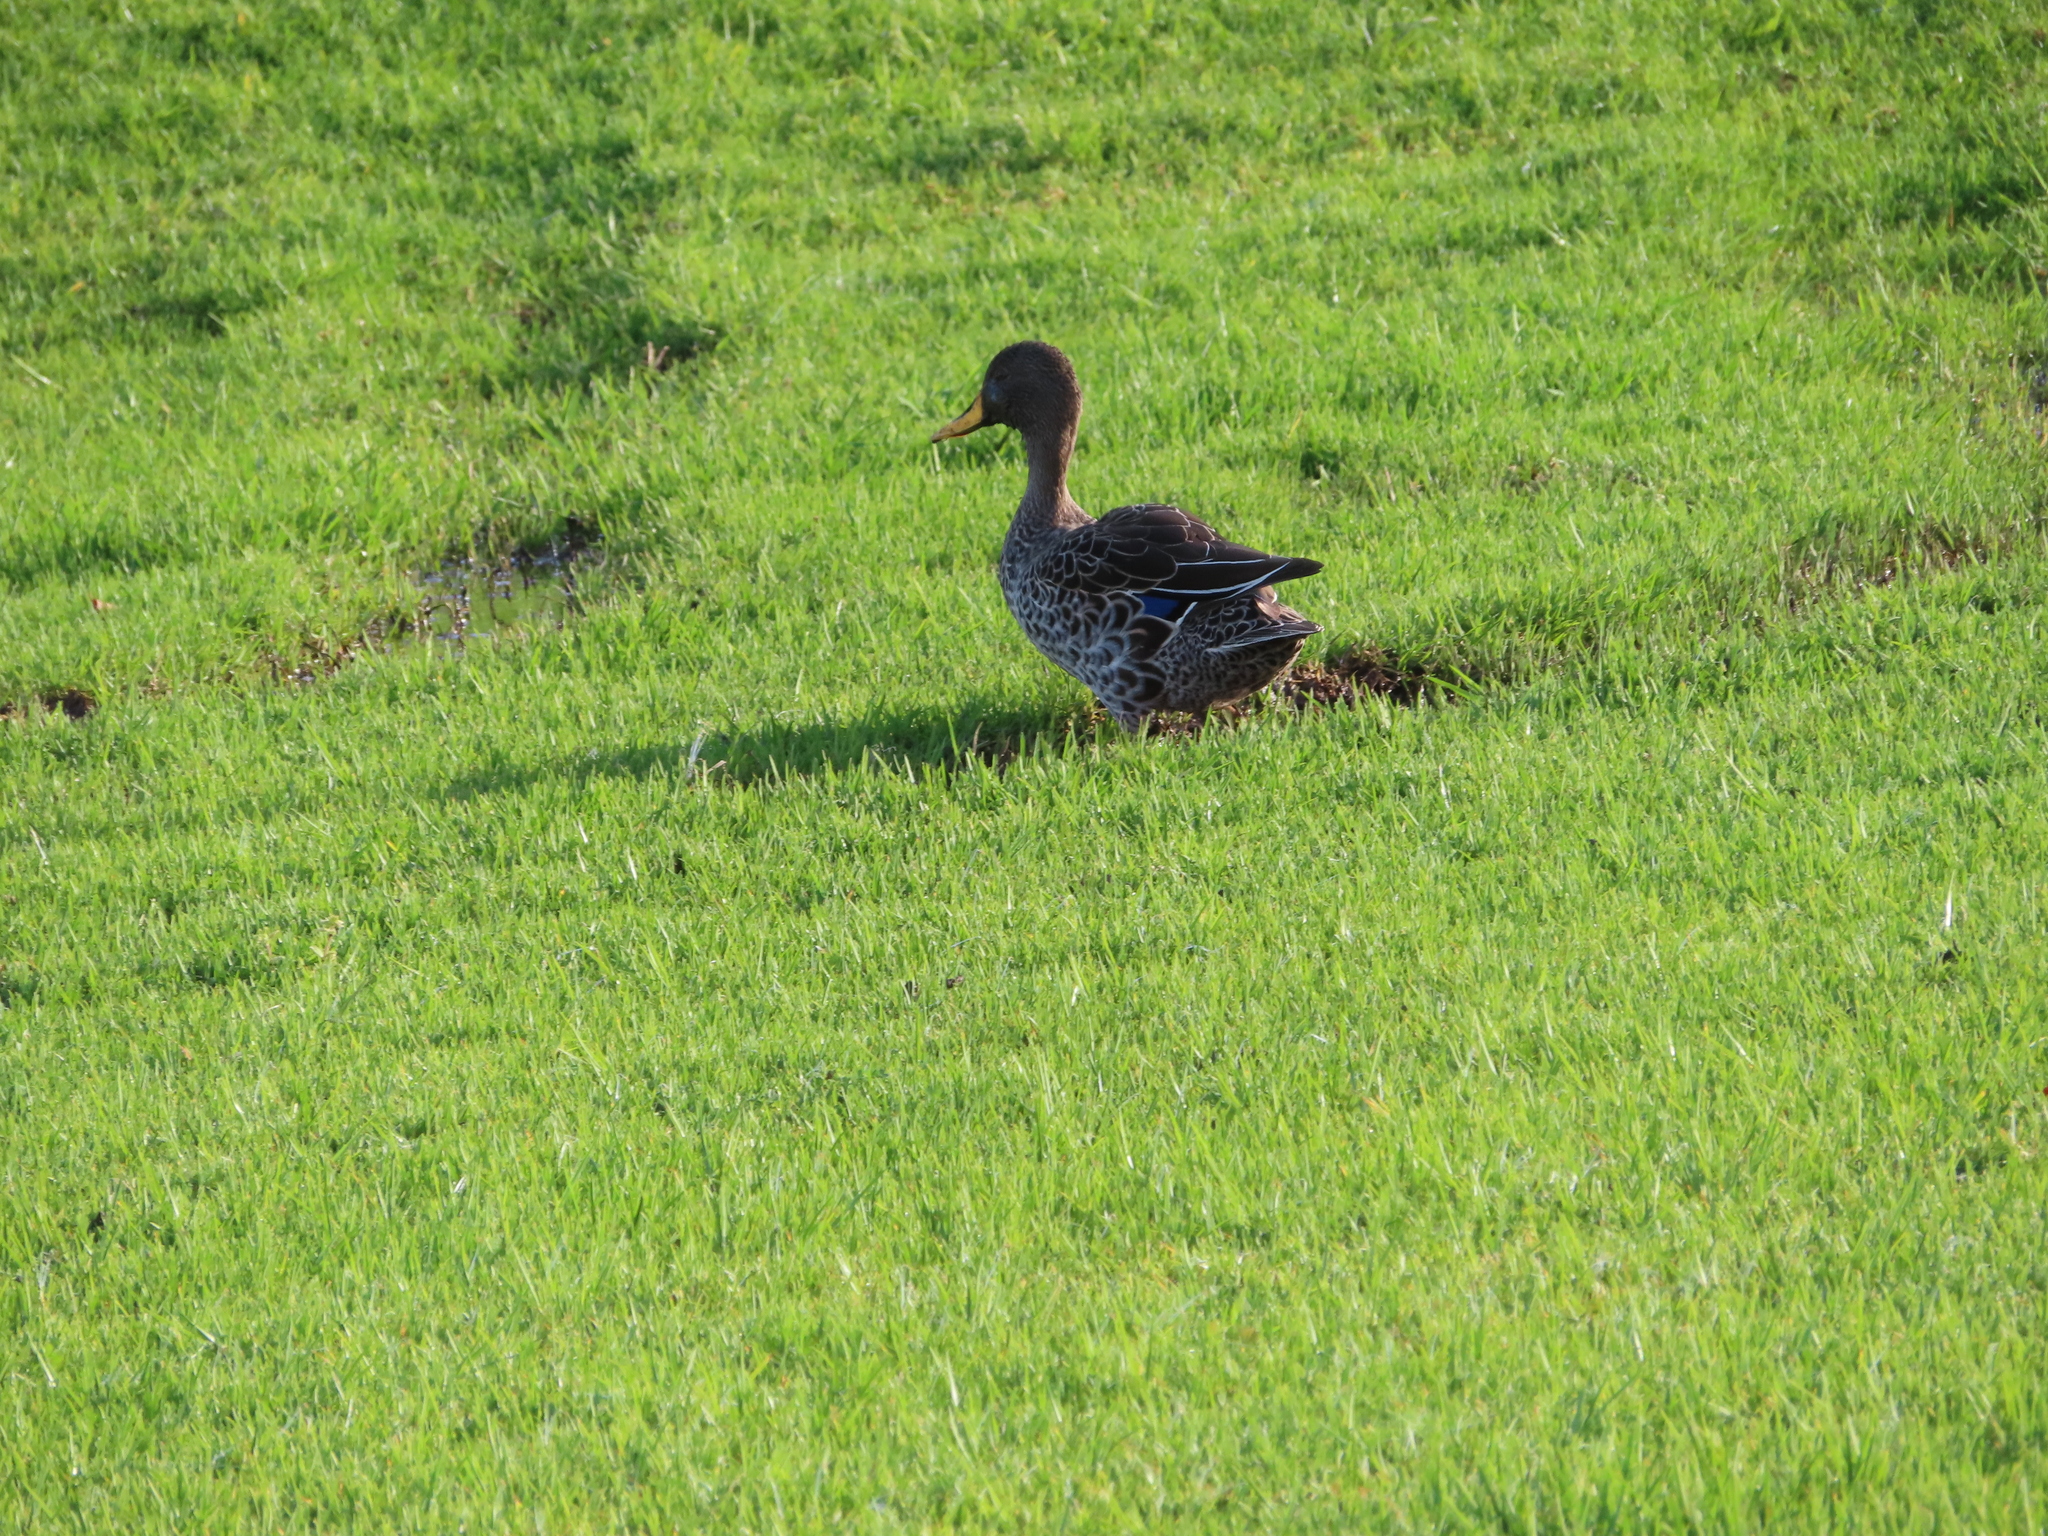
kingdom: Animalia
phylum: Chordata
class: Aves
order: Anseriformes
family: Anatidae
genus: Anas
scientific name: Anas undulata
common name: Yellow-billed duck
